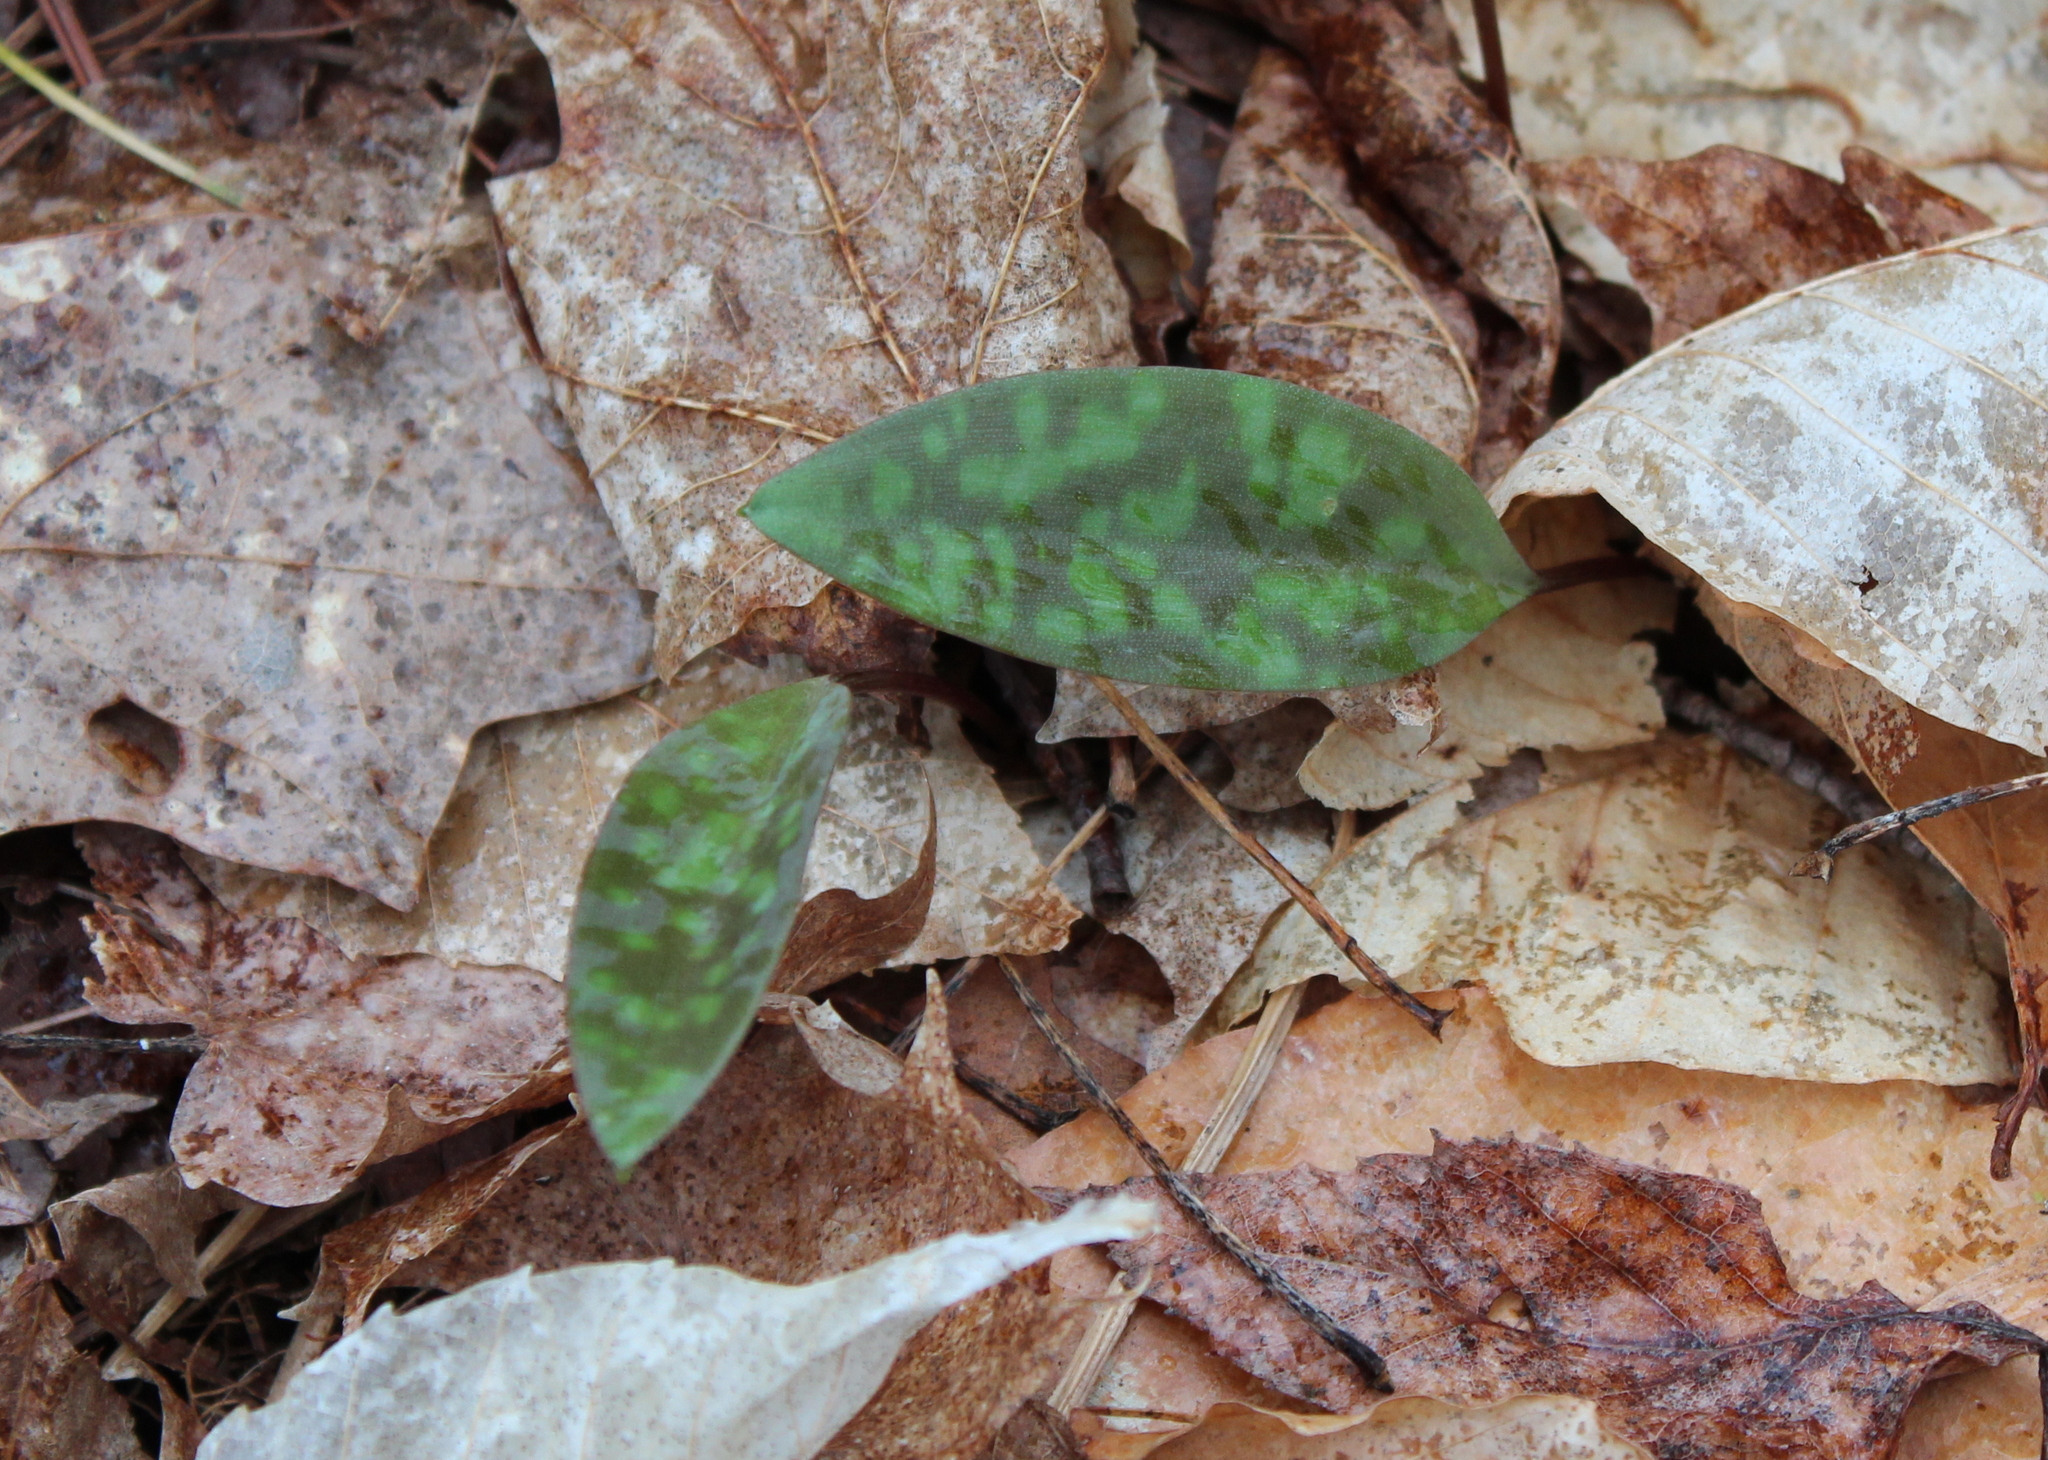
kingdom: Plantae
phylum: Tracheophyta
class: Liliopsida
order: Liliales
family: Liliaceae
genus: Erythronium
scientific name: Erythronium americanum
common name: Yellow adder's-tongue
